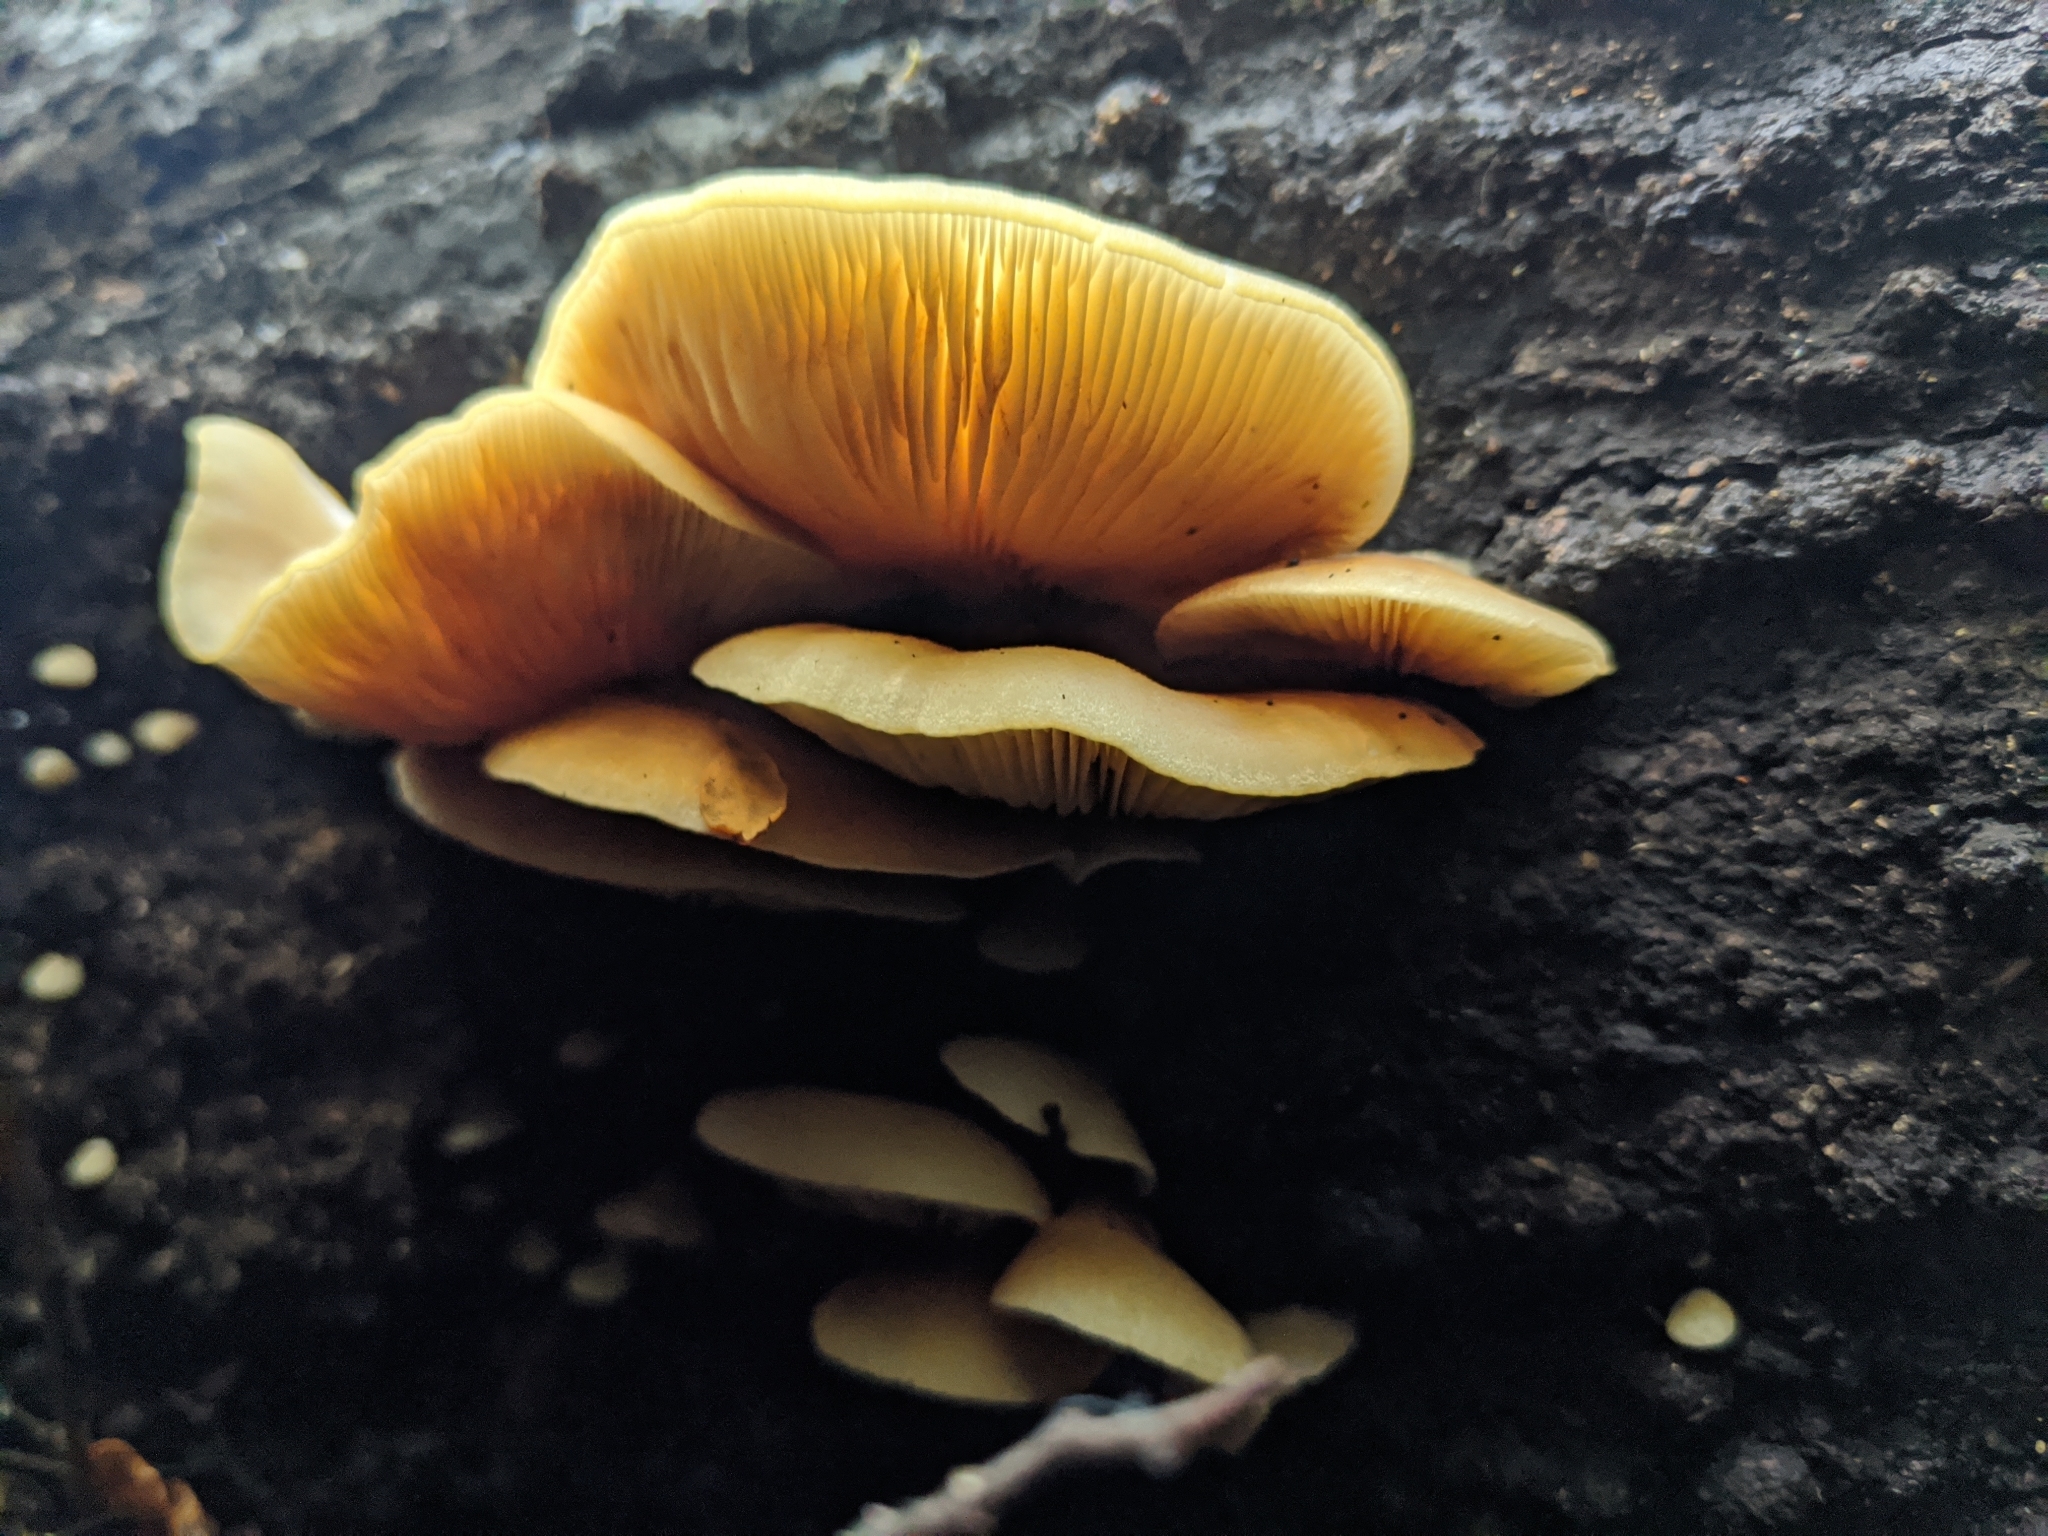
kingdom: Fungi
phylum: Basidiomycota
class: Agaricomycetes
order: Agaricales
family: Crepidotaceae
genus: Crepidotus
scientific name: Crepidotus praecipuus
